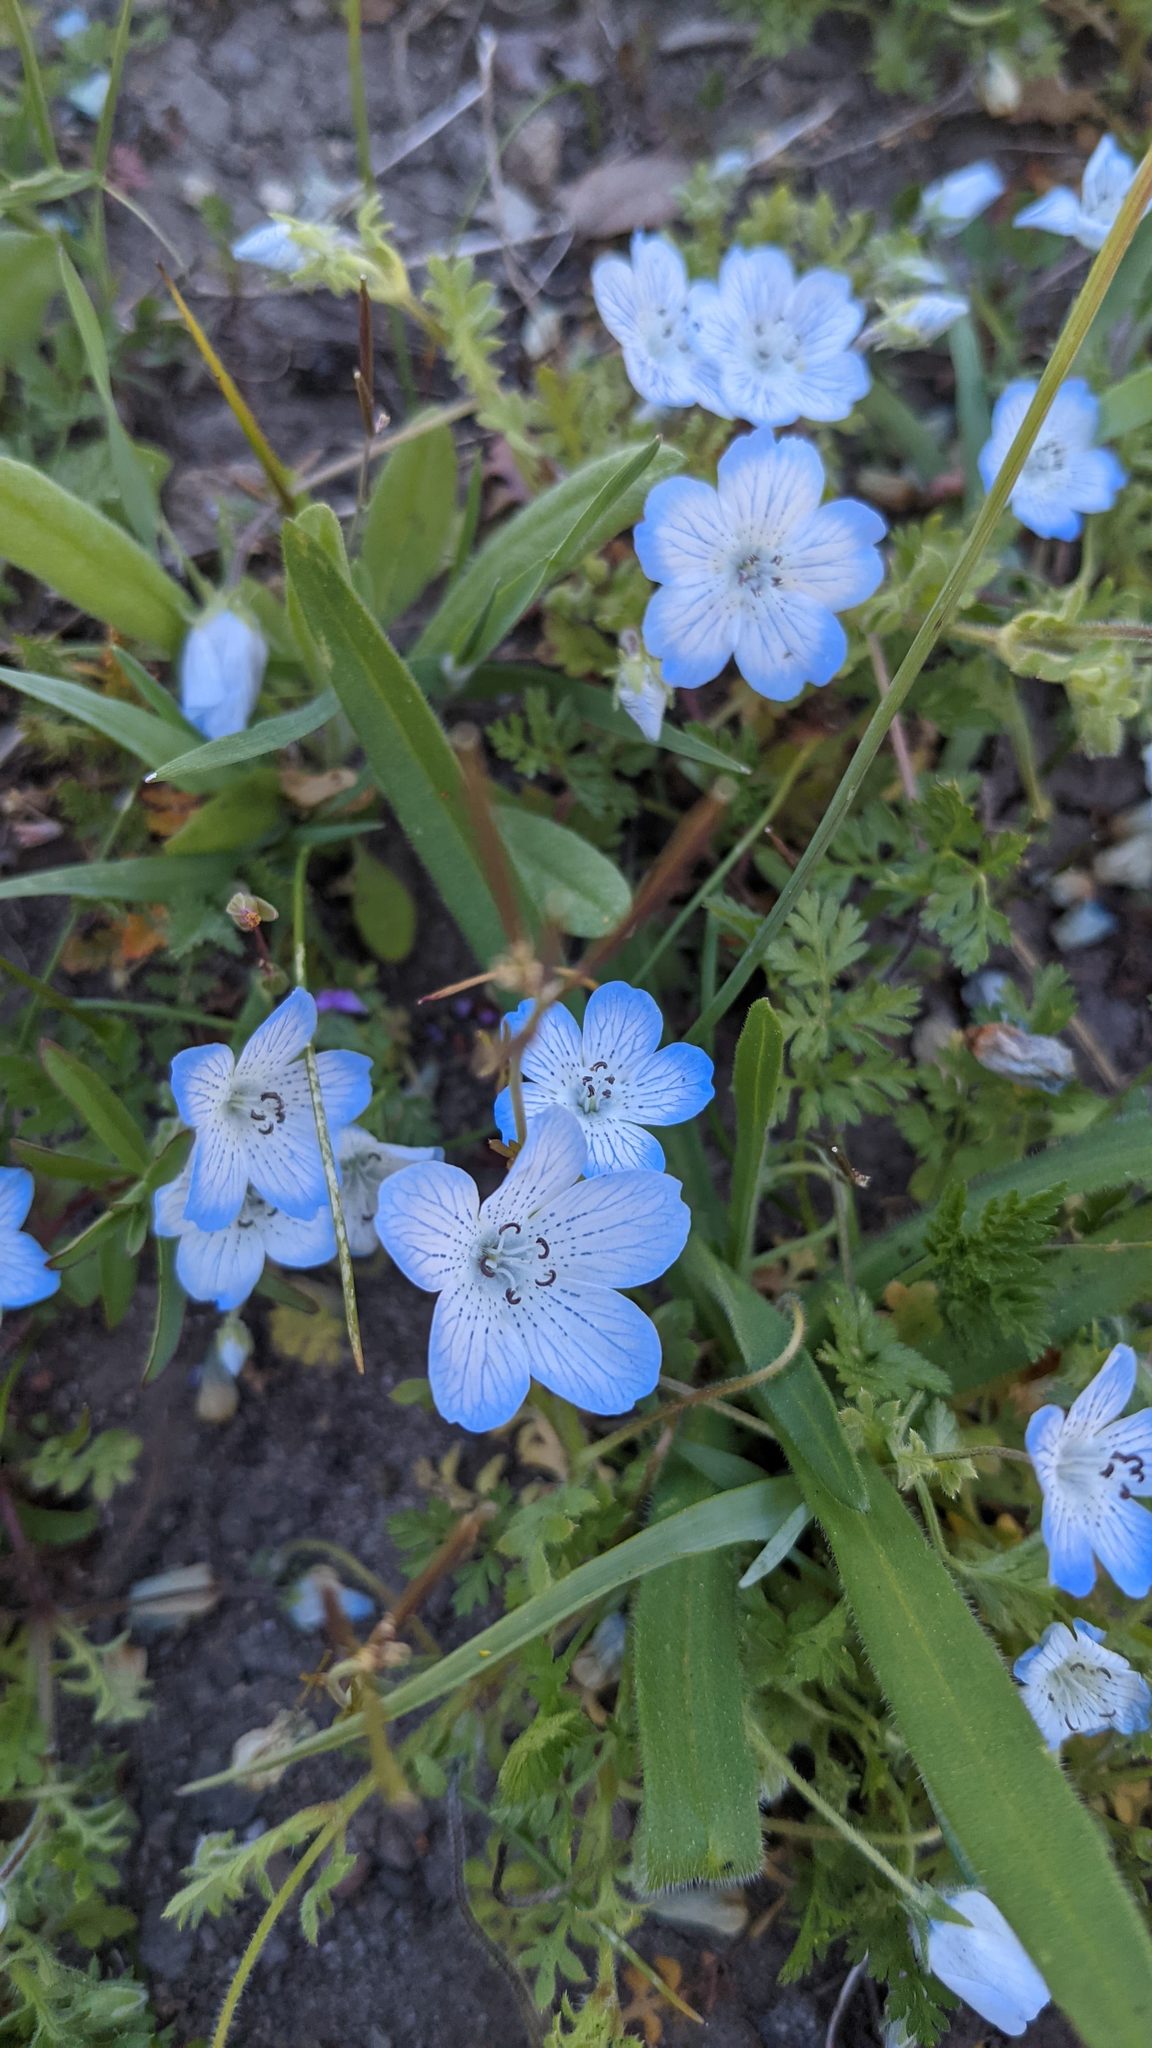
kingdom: Plantae
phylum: Tracheophyta
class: Magnoliopsida
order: Boraginales
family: Hydrophyllaceae
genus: Nemophila
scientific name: Nemophila menziesii
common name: Baby's-blue-eyes
